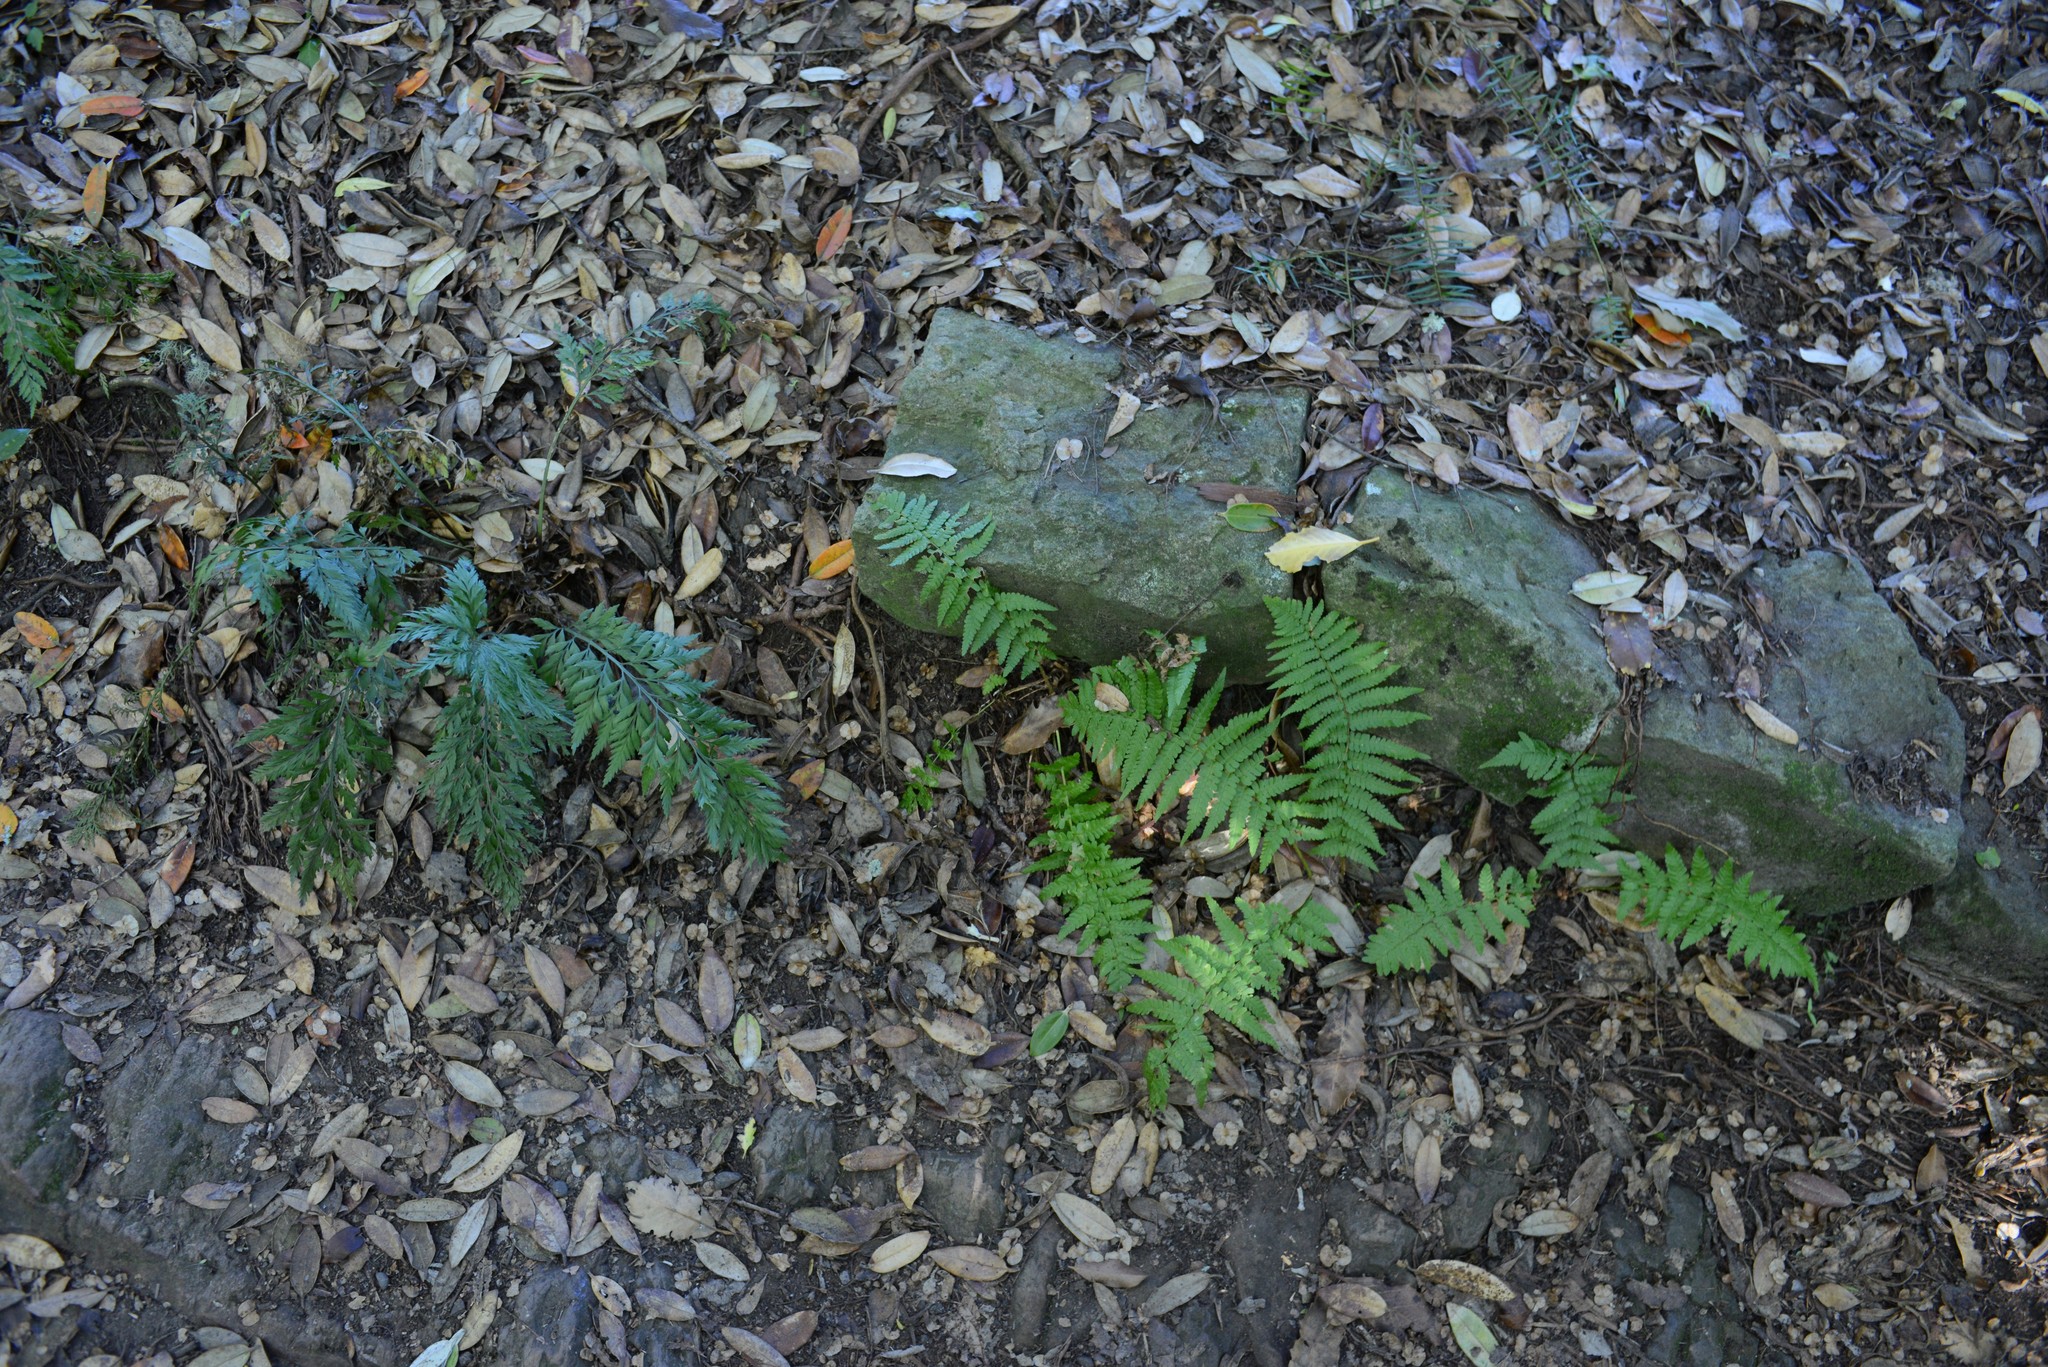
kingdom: Plantae
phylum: Tracheophyta
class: Polypodiopsida
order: Polypodiales
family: Aspleniaceae
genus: Asplenium
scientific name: Asplenium appendiculatum
